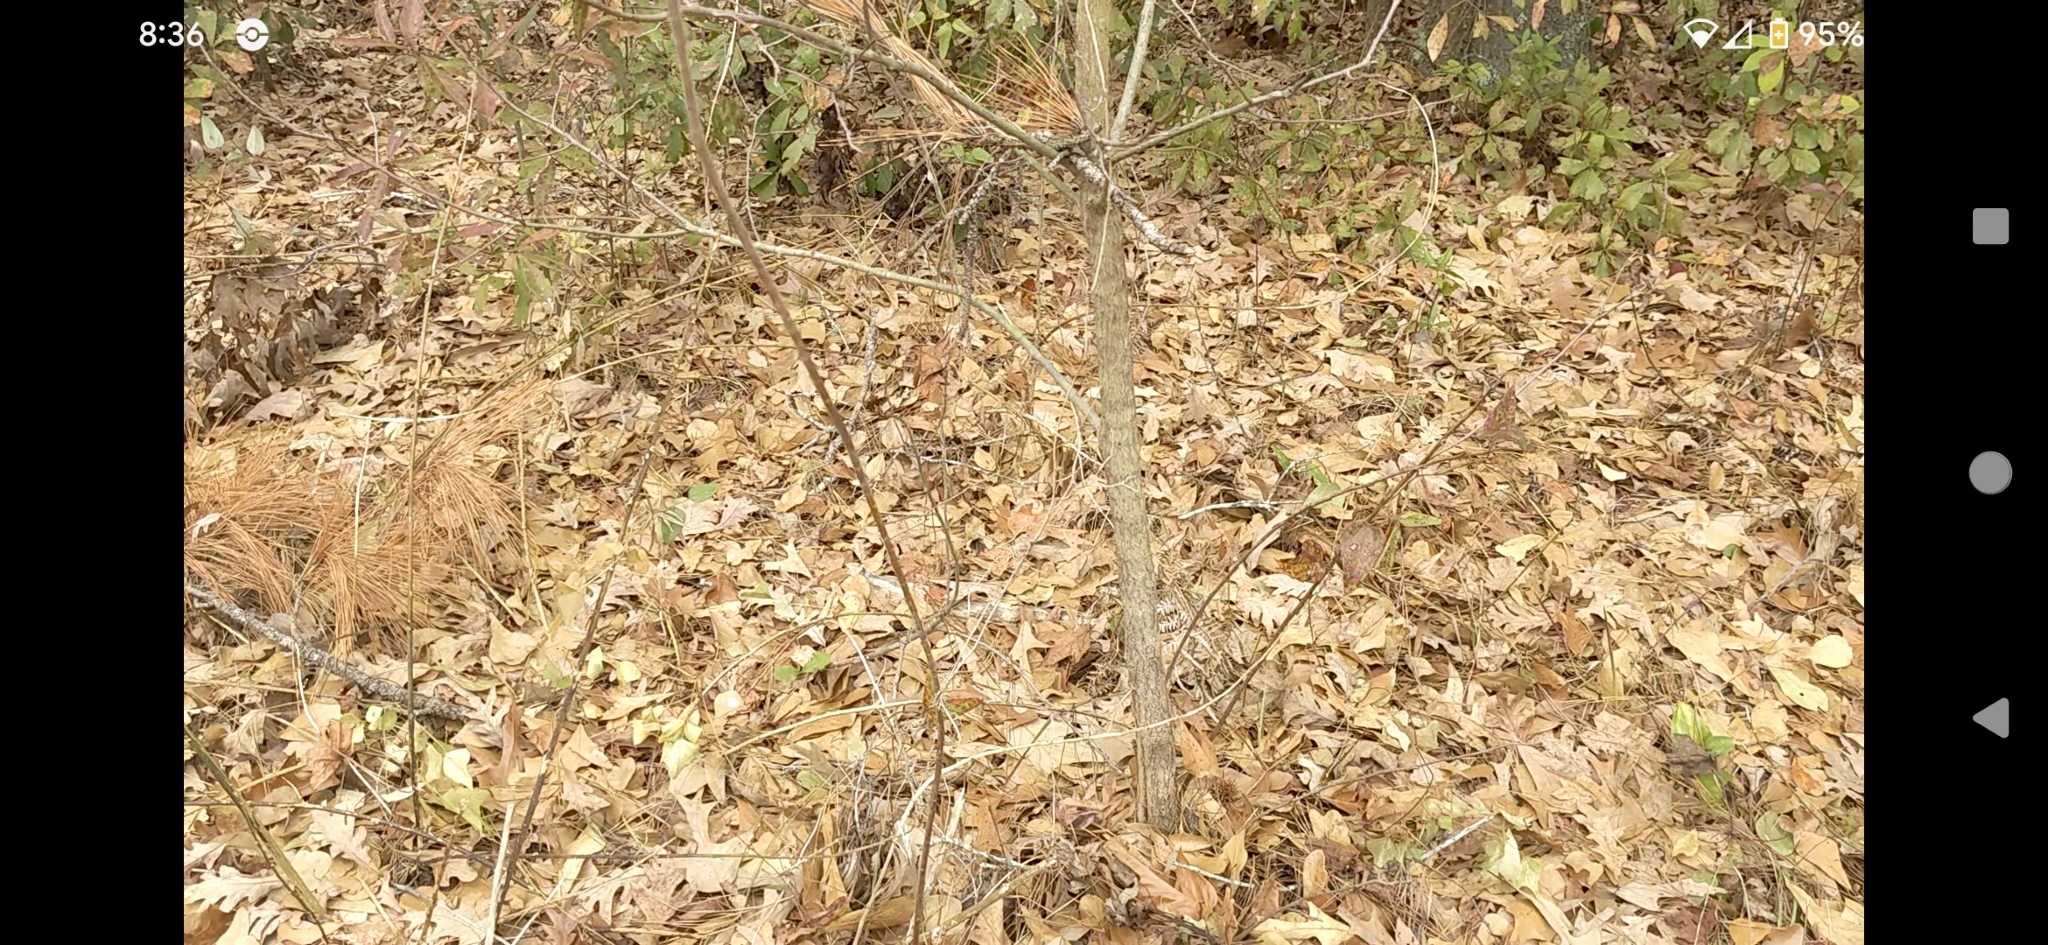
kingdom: Plantae
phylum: Tracheophyta
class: Magnoliopsida
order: Ericales
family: Ebenaceae
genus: Diospyros
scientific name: Diospyros virginiana
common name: Persimmon
